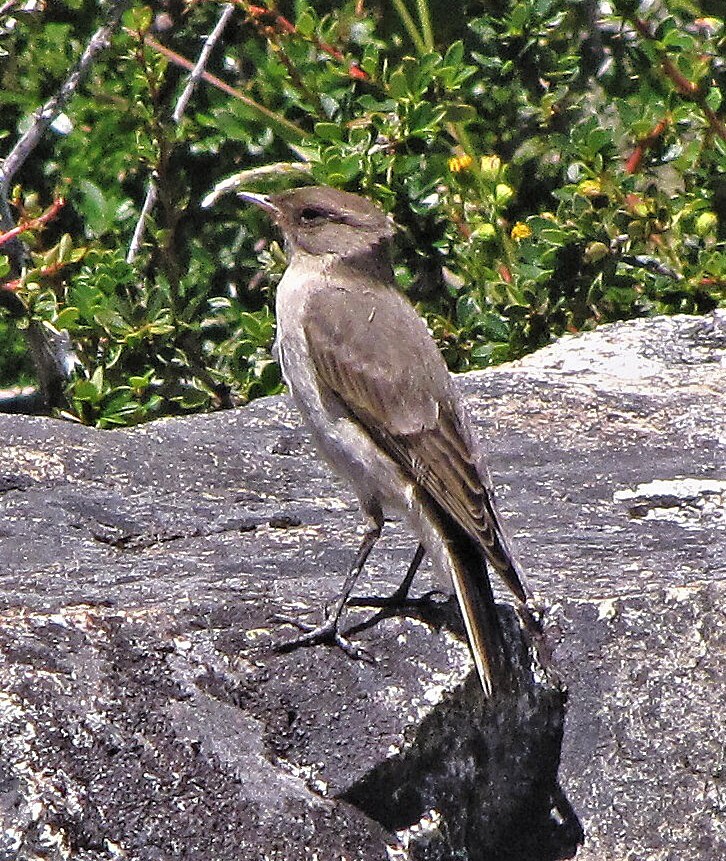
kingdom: Animalia
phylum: Chordata
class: Aves
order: Passeriformes
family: Tyrannidae
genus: Muscisaxicola
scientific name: Muscisaxicola maclovianus
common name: Dark-faced ground tyrant
